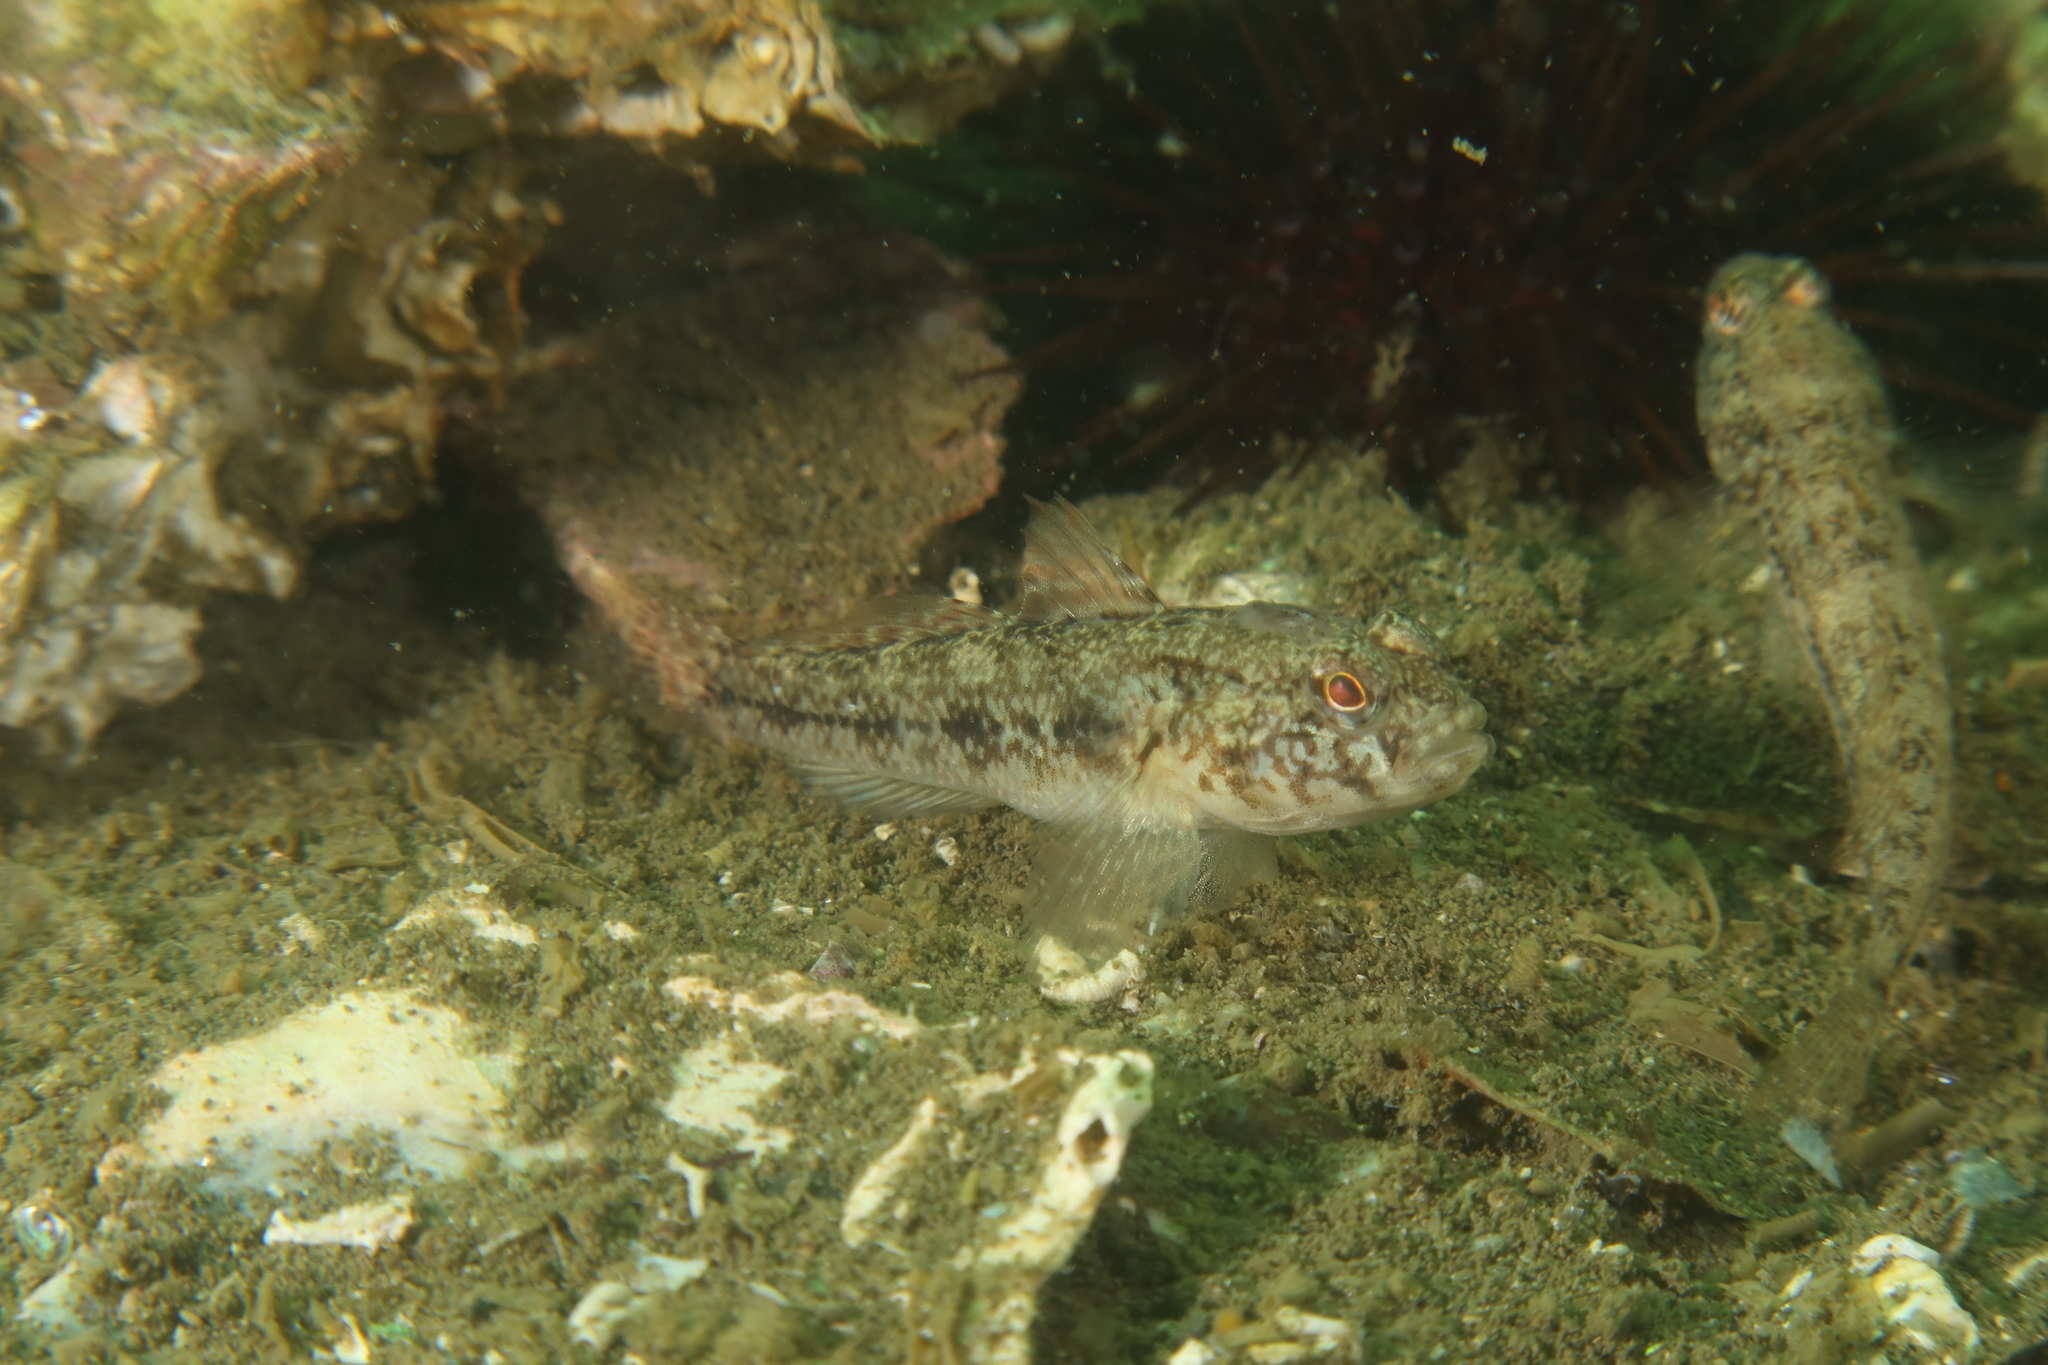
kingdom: Animalia
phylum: Chordata
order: Perciformes
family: Gobiidae
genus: Gobius
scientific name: Gobius niger
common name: Black goby
